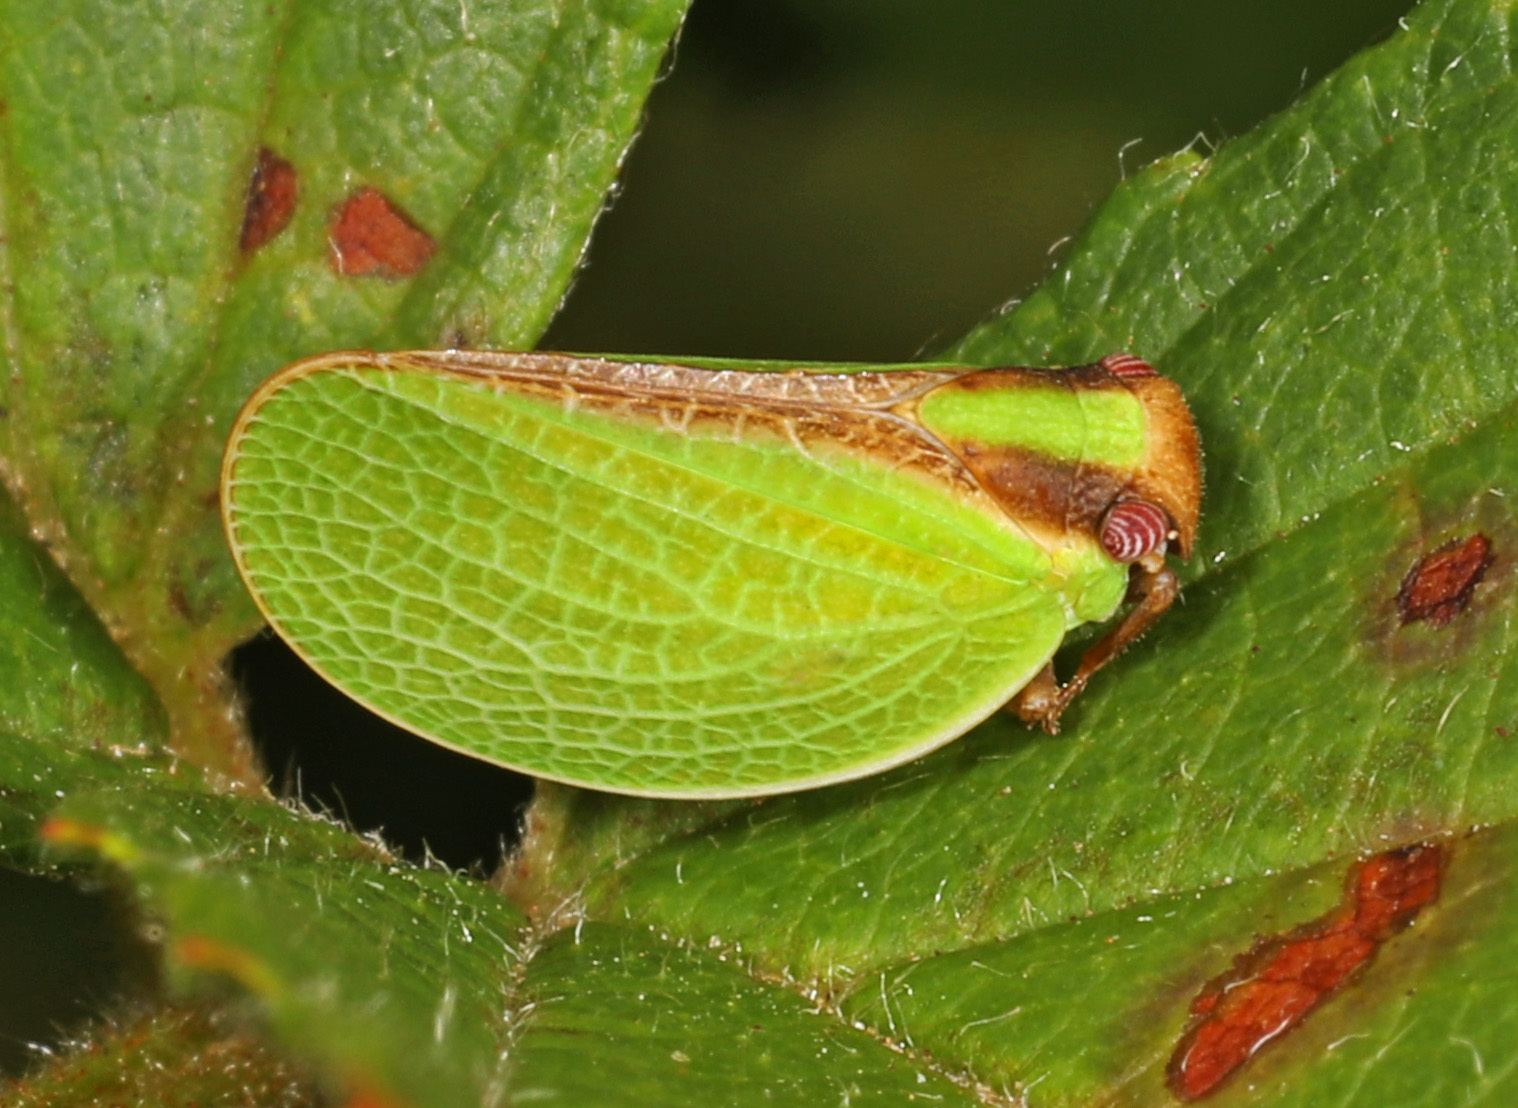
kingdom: Animalia
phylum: Arthropoda
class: Insecta
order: Hemiptera
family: Acanaloniidae
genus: Acanalonia
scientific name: Acanalonia bivittata
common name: Two-striped planthopper
